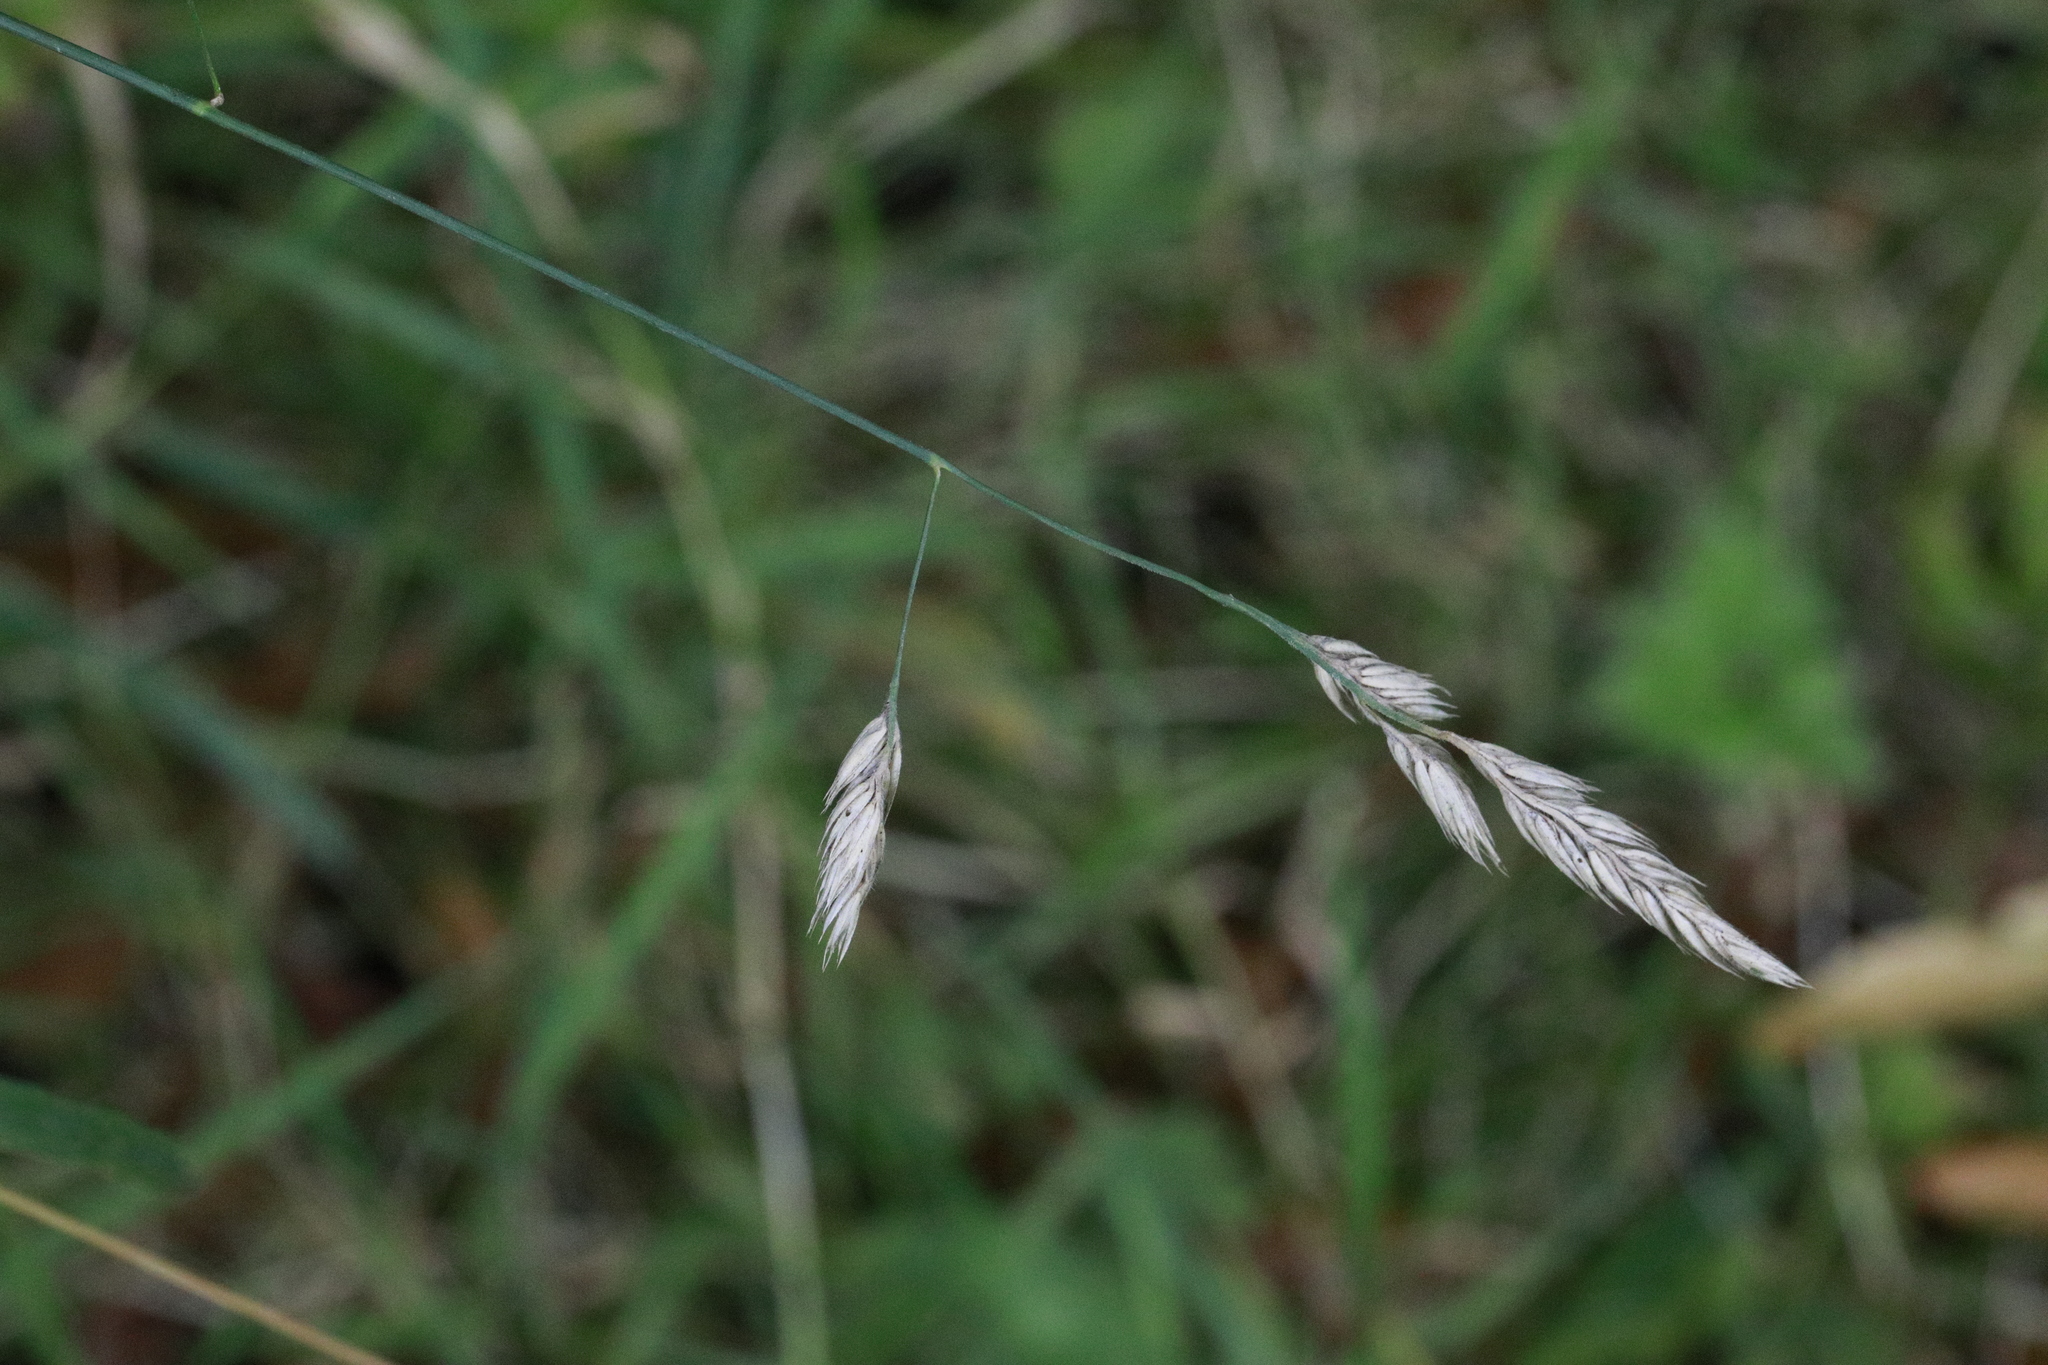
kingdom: Plantae
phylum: Tracheophyta
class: Liliopsida
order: Poales
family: Poaceae
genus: Dactylis
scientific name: Dactylis glomerata
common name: Orchardgrass
